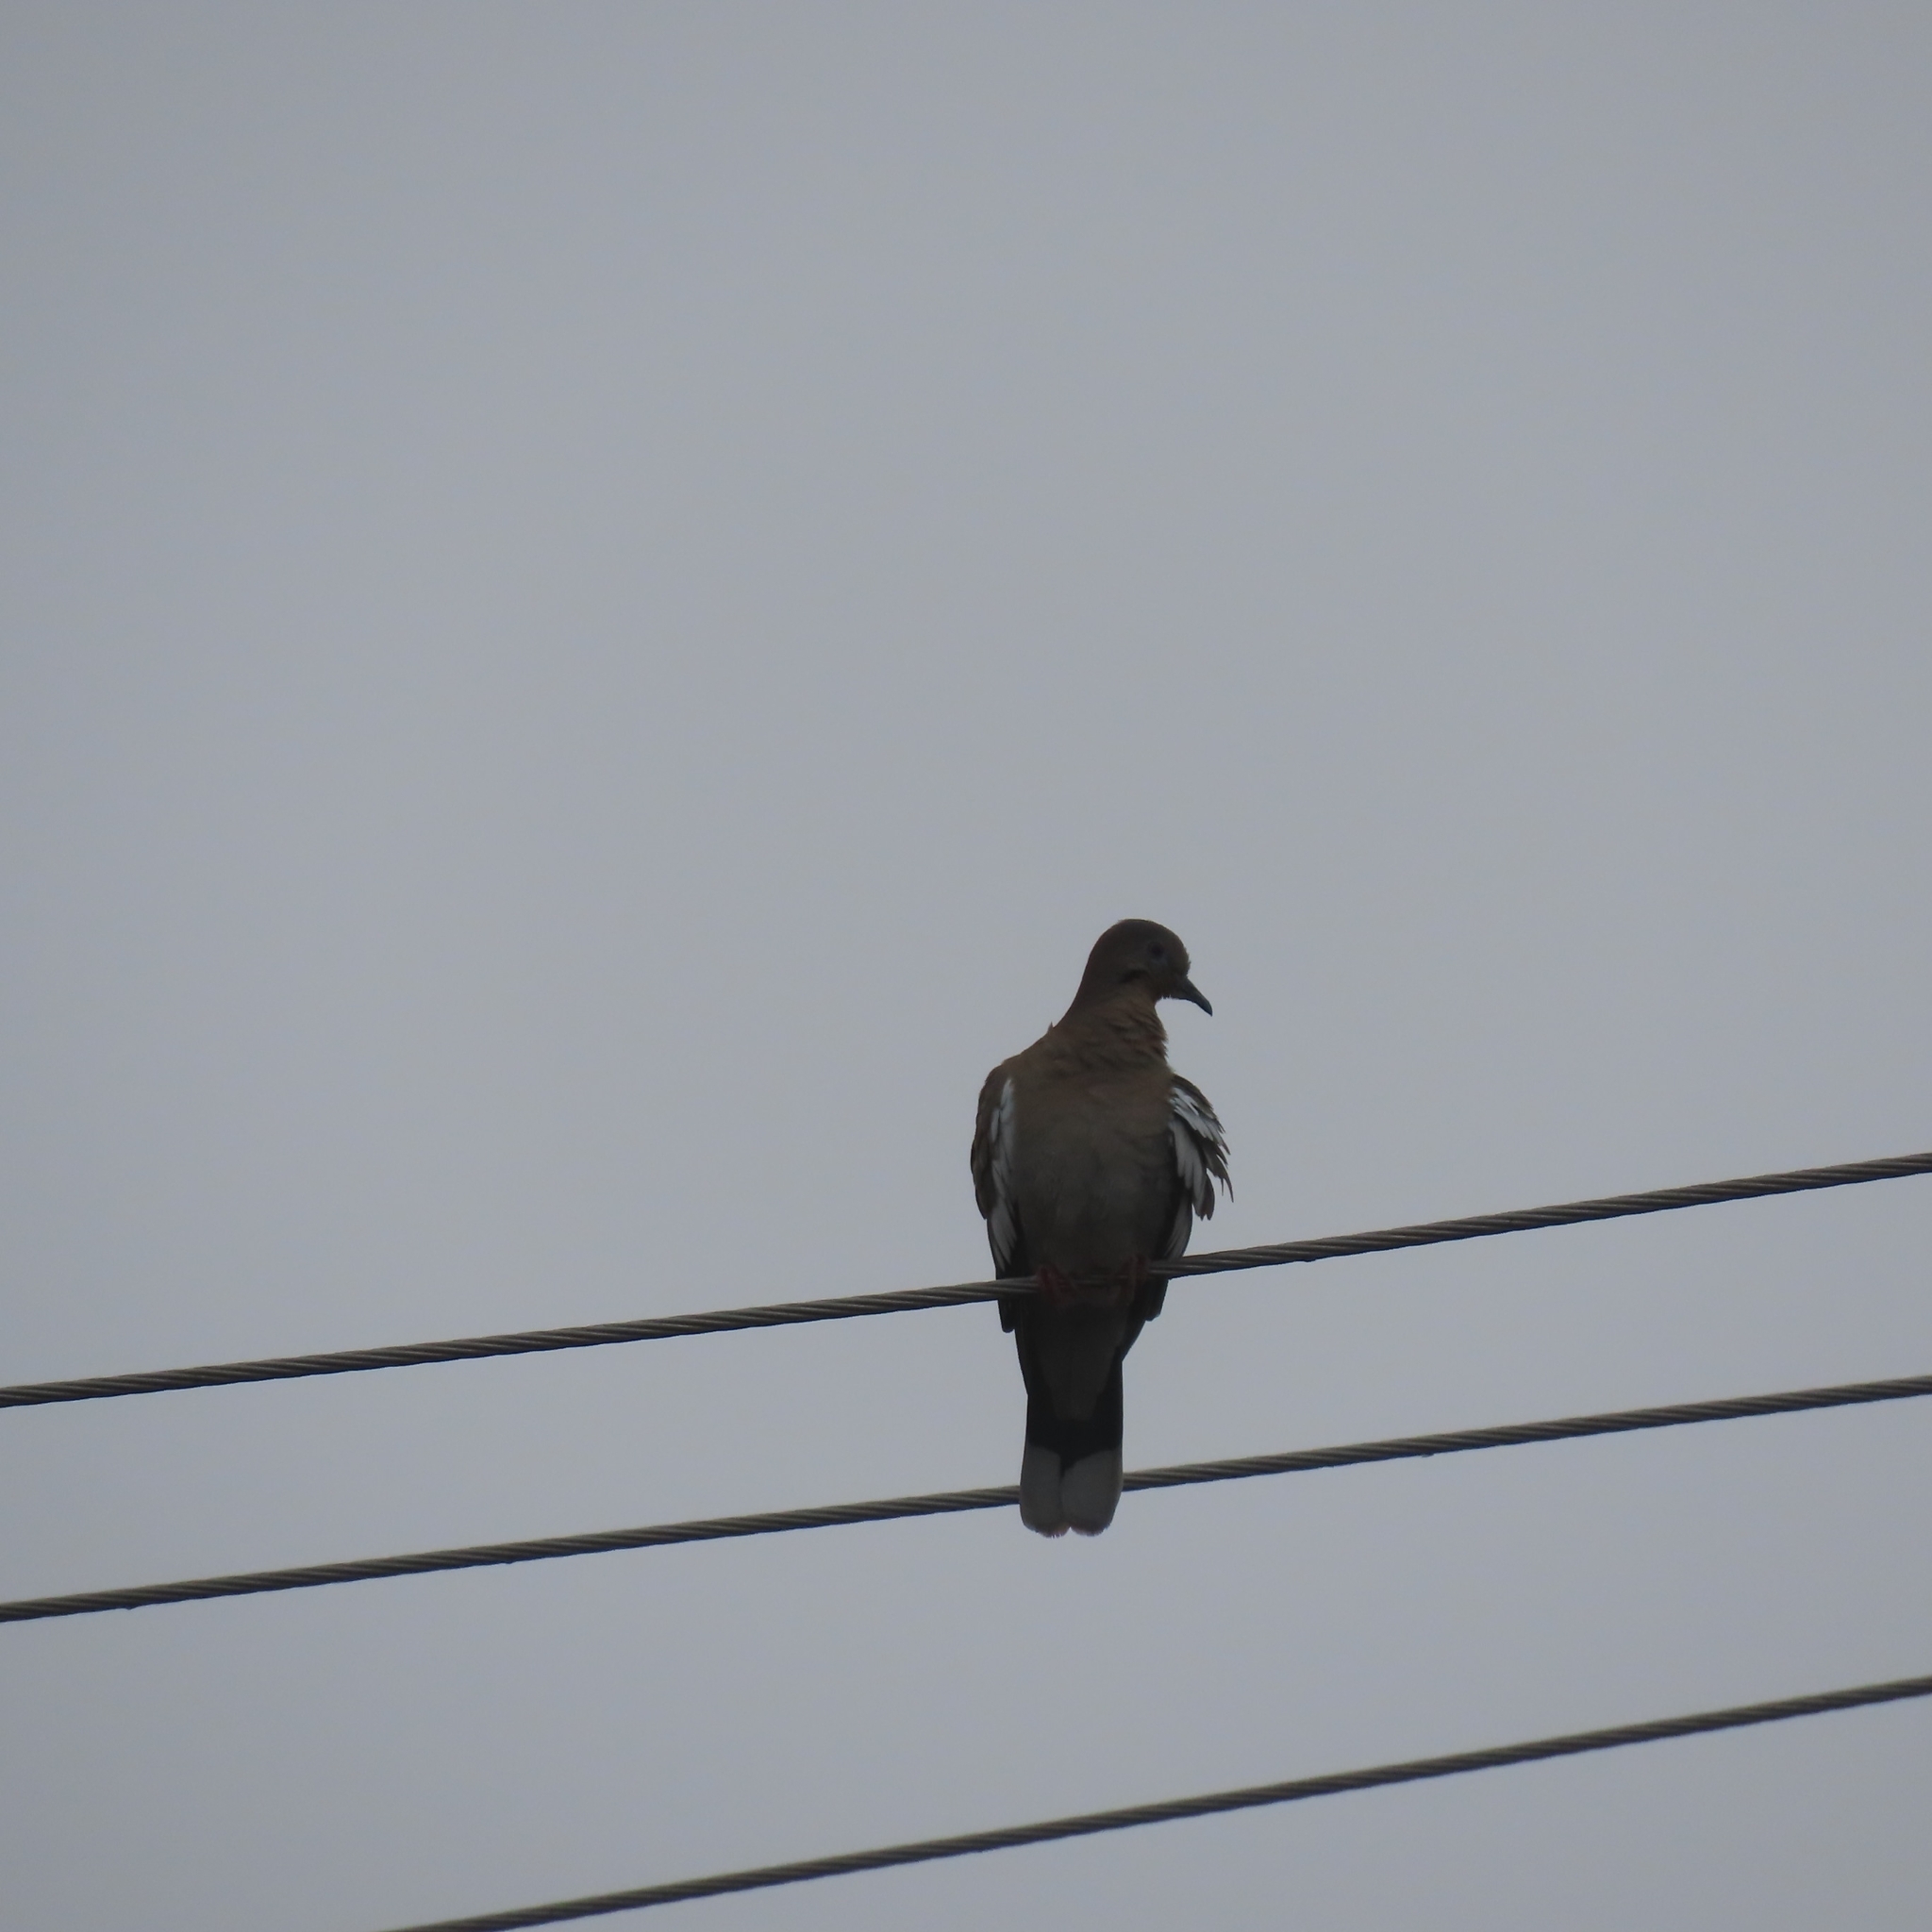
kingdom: Animalia
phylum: Chordata
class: Aves
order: Columbiformes
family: Columbidae
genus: Zenaida
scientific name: Zenaida asiatica
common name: White-winged dove
